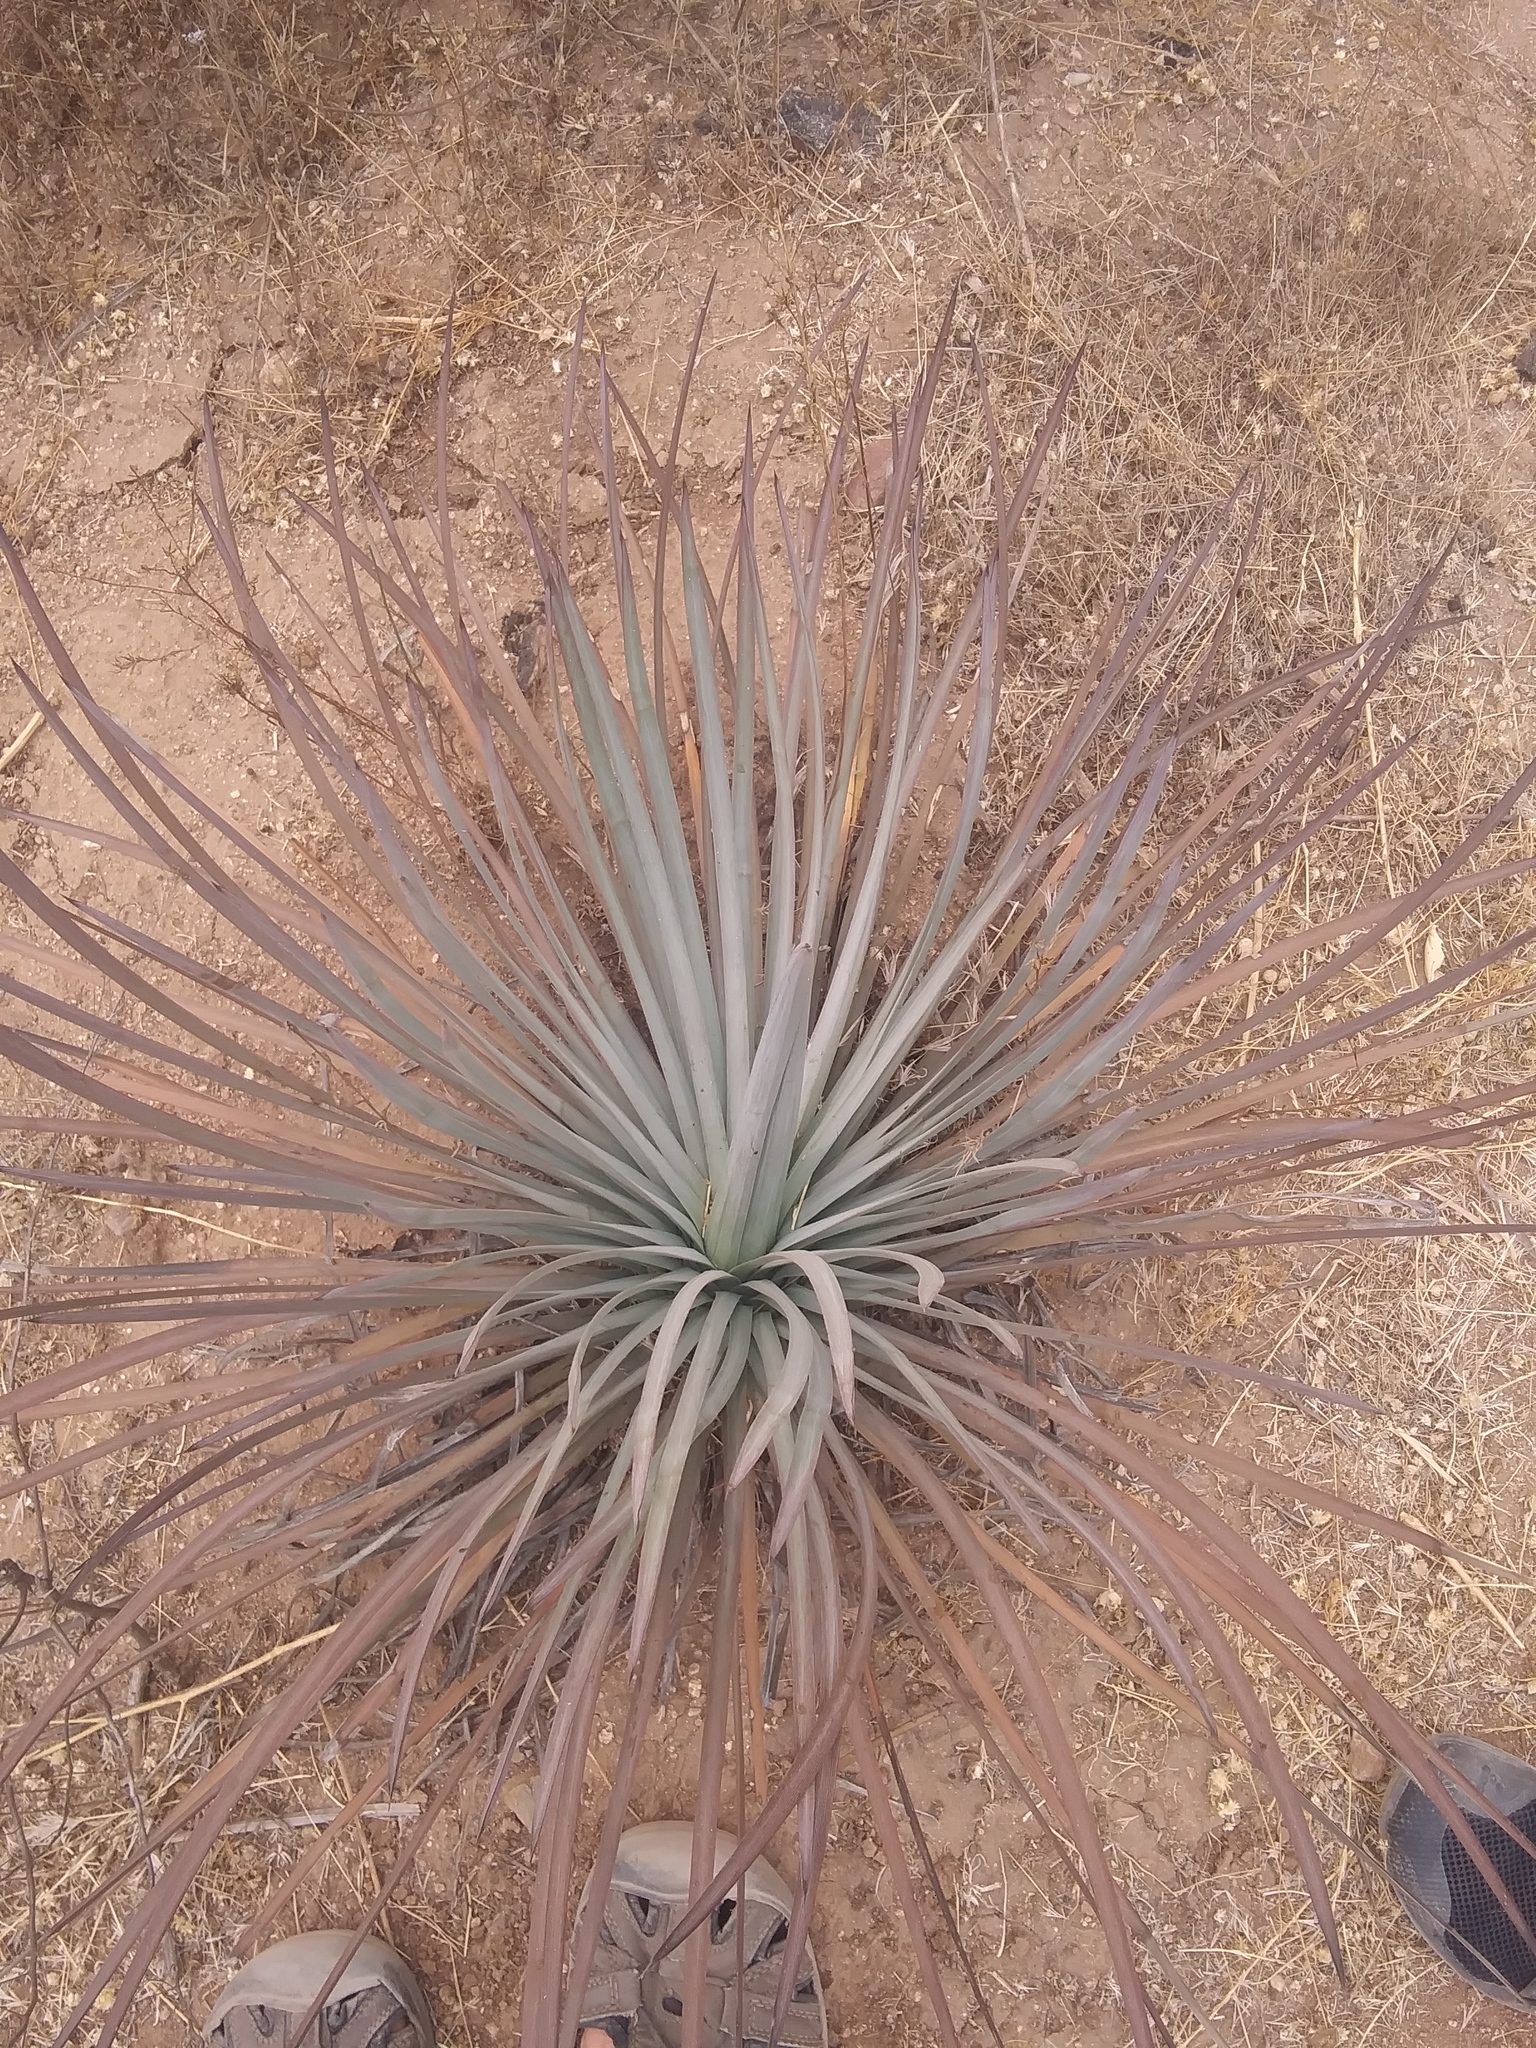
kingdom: Plantae
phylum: Tracheophyta
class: Liliopsida
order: Asparagales
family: Asparagaceae
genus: Hesperoyucca
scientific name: Hesperoyucca whipplei
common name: Our lord's-candle
